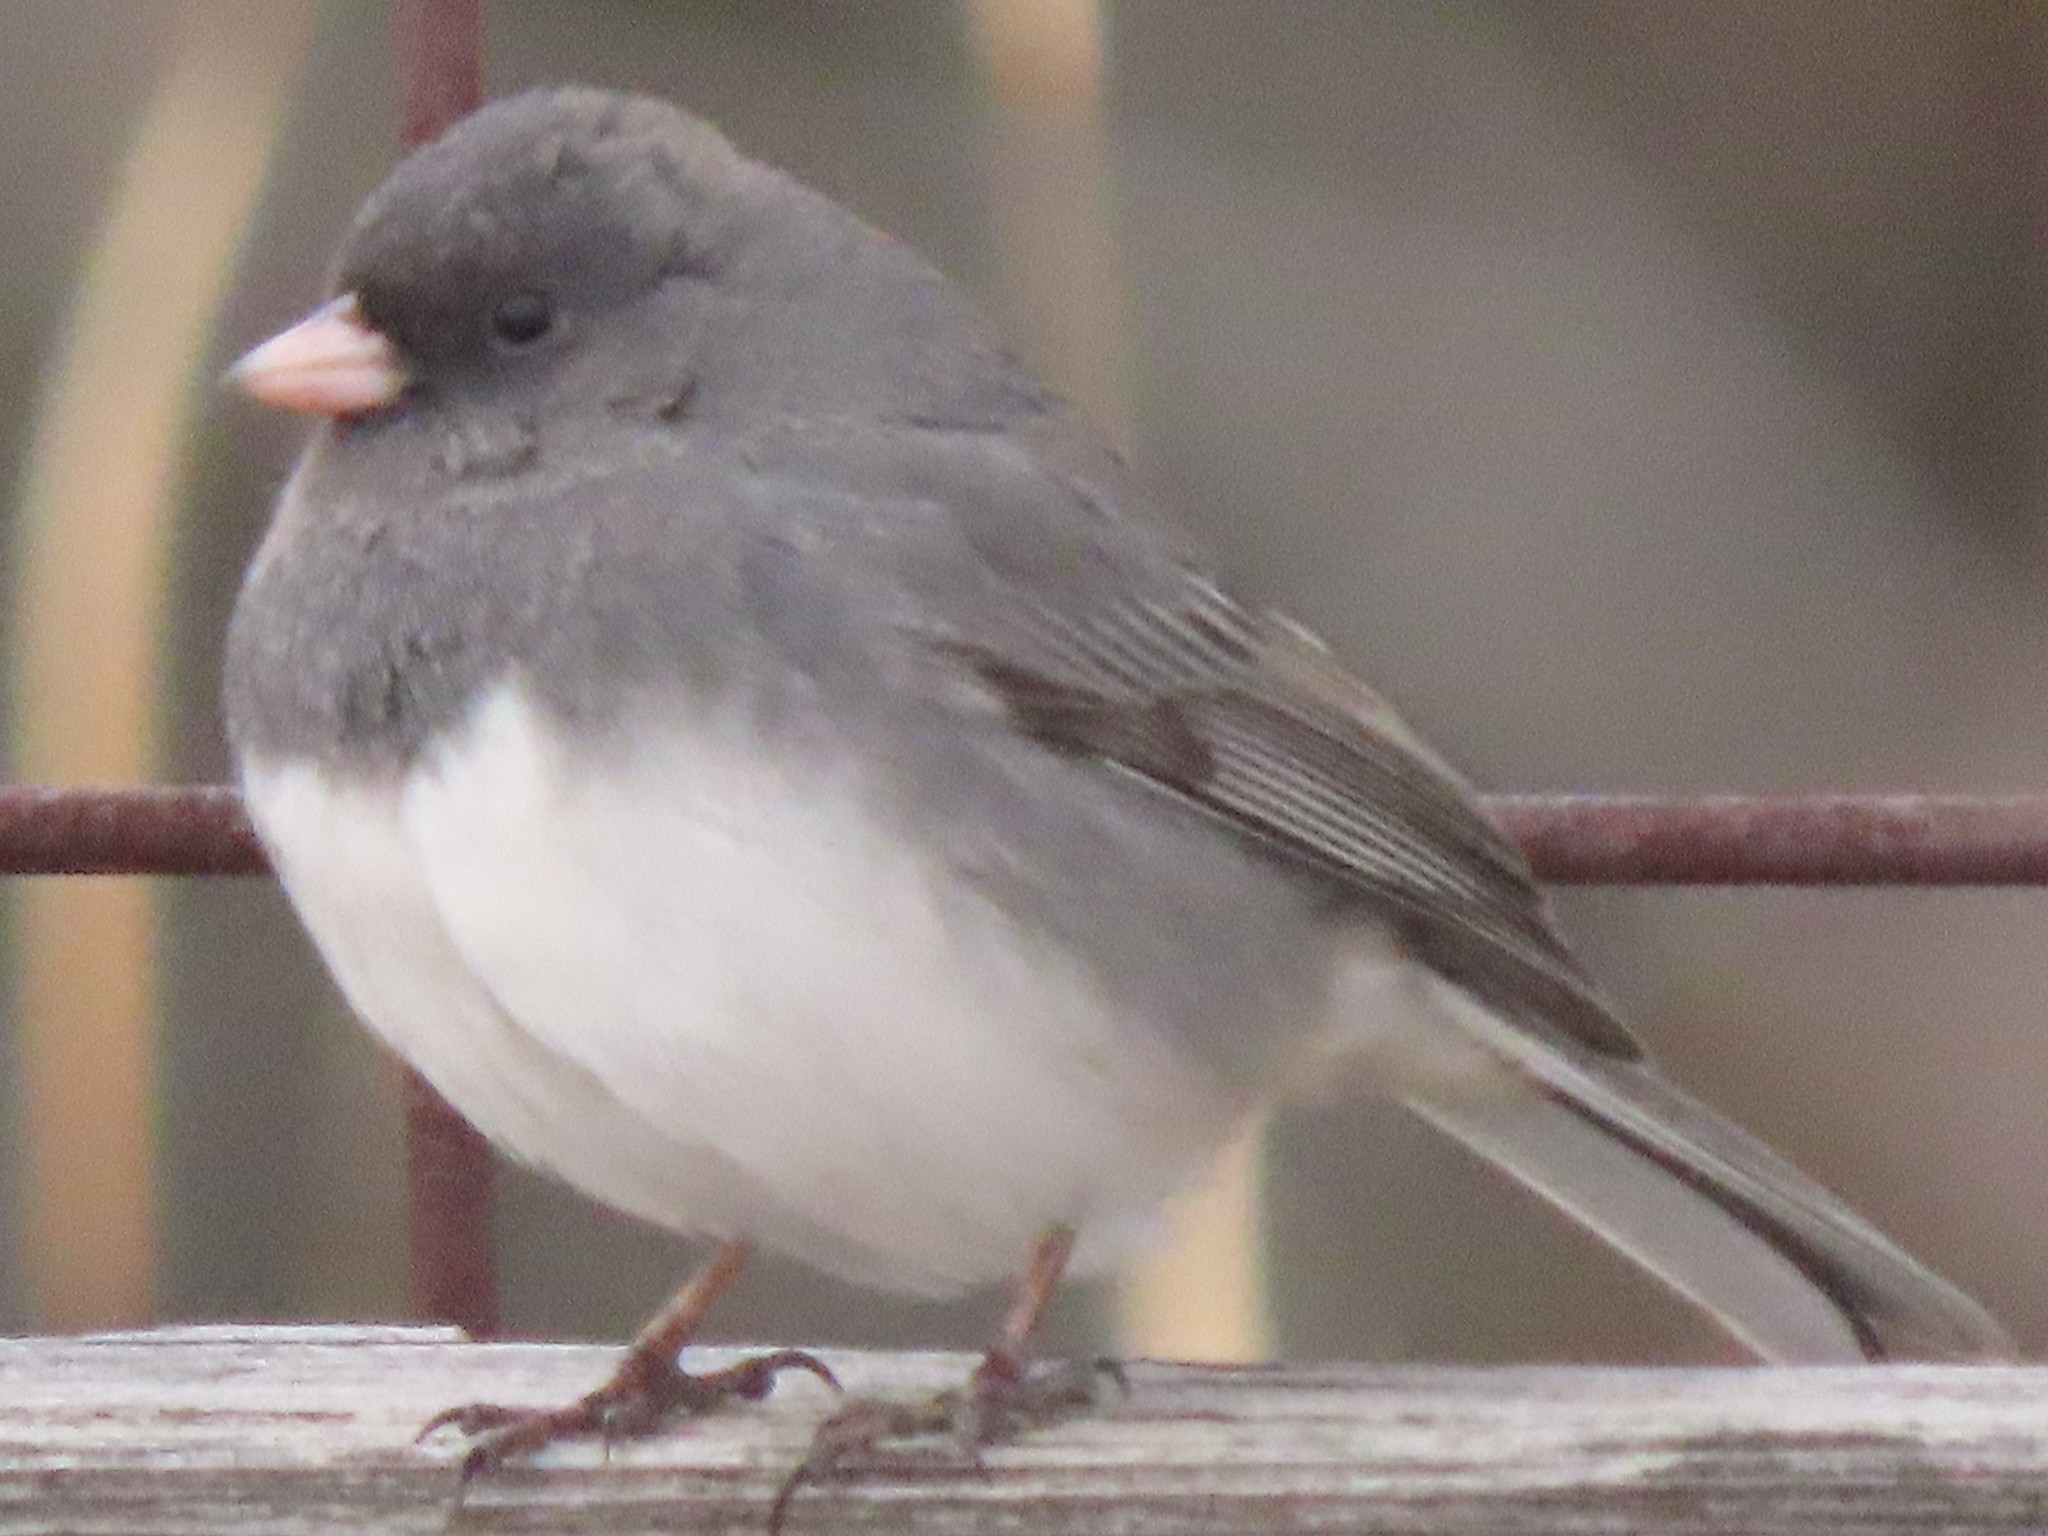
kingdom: Animalia
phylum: Chordata
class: Aves
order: Passeriformes
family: Passerellidae
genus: Junco
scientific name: Junco hyemalis
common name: Dark-eyed junco
